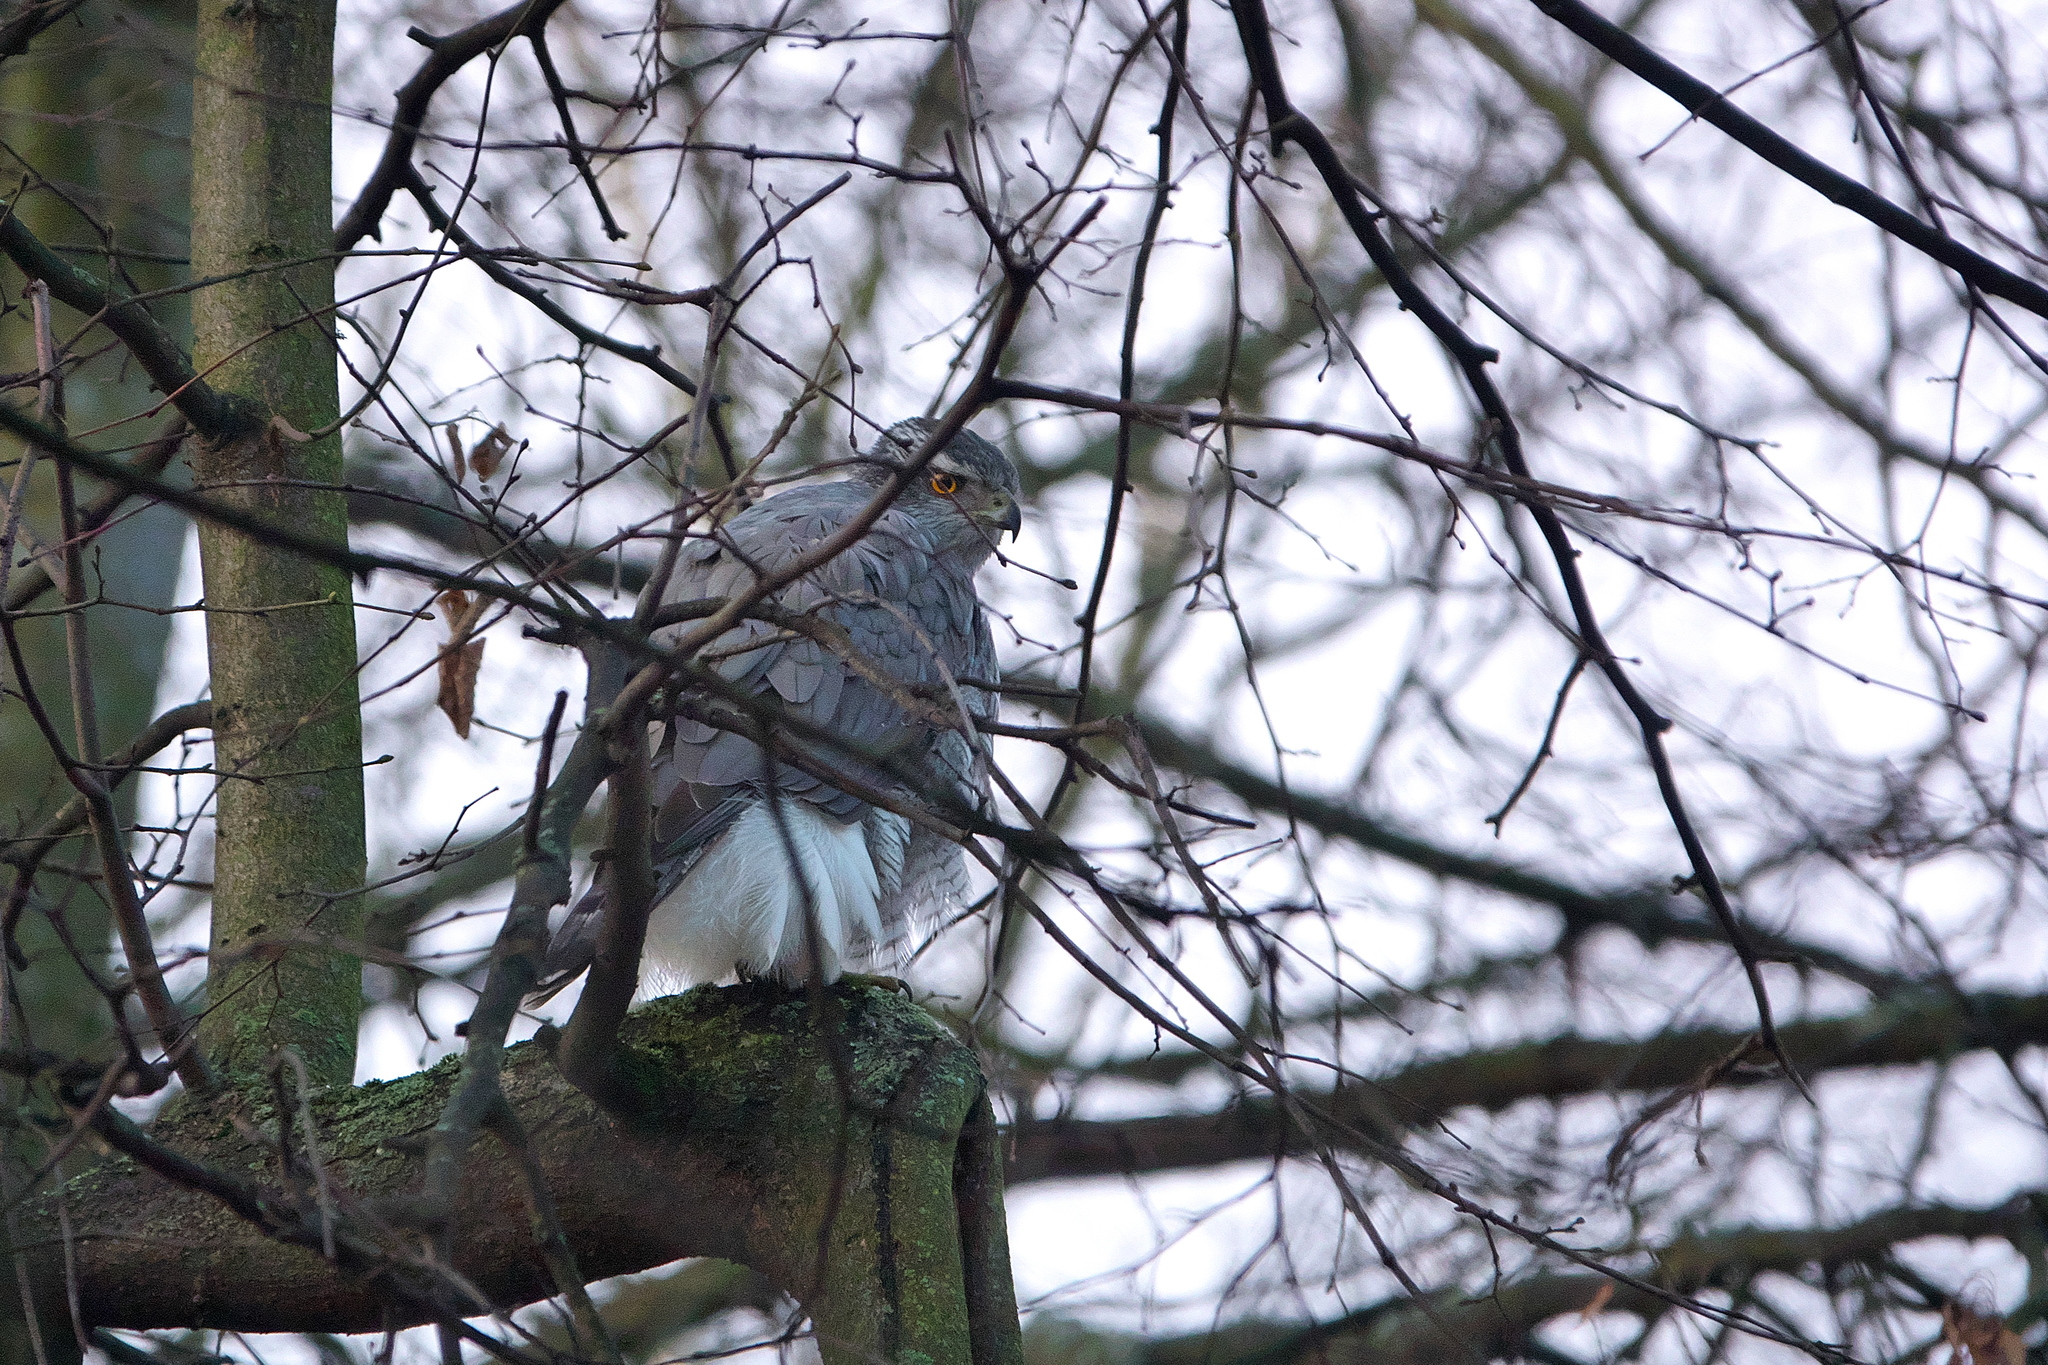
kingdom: Animalia
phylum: Chordata
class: Aves
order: Accipitriformes
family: Accipitridae
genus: Accipiter
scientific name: Accipiter gentilis
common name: Northern goshawk
